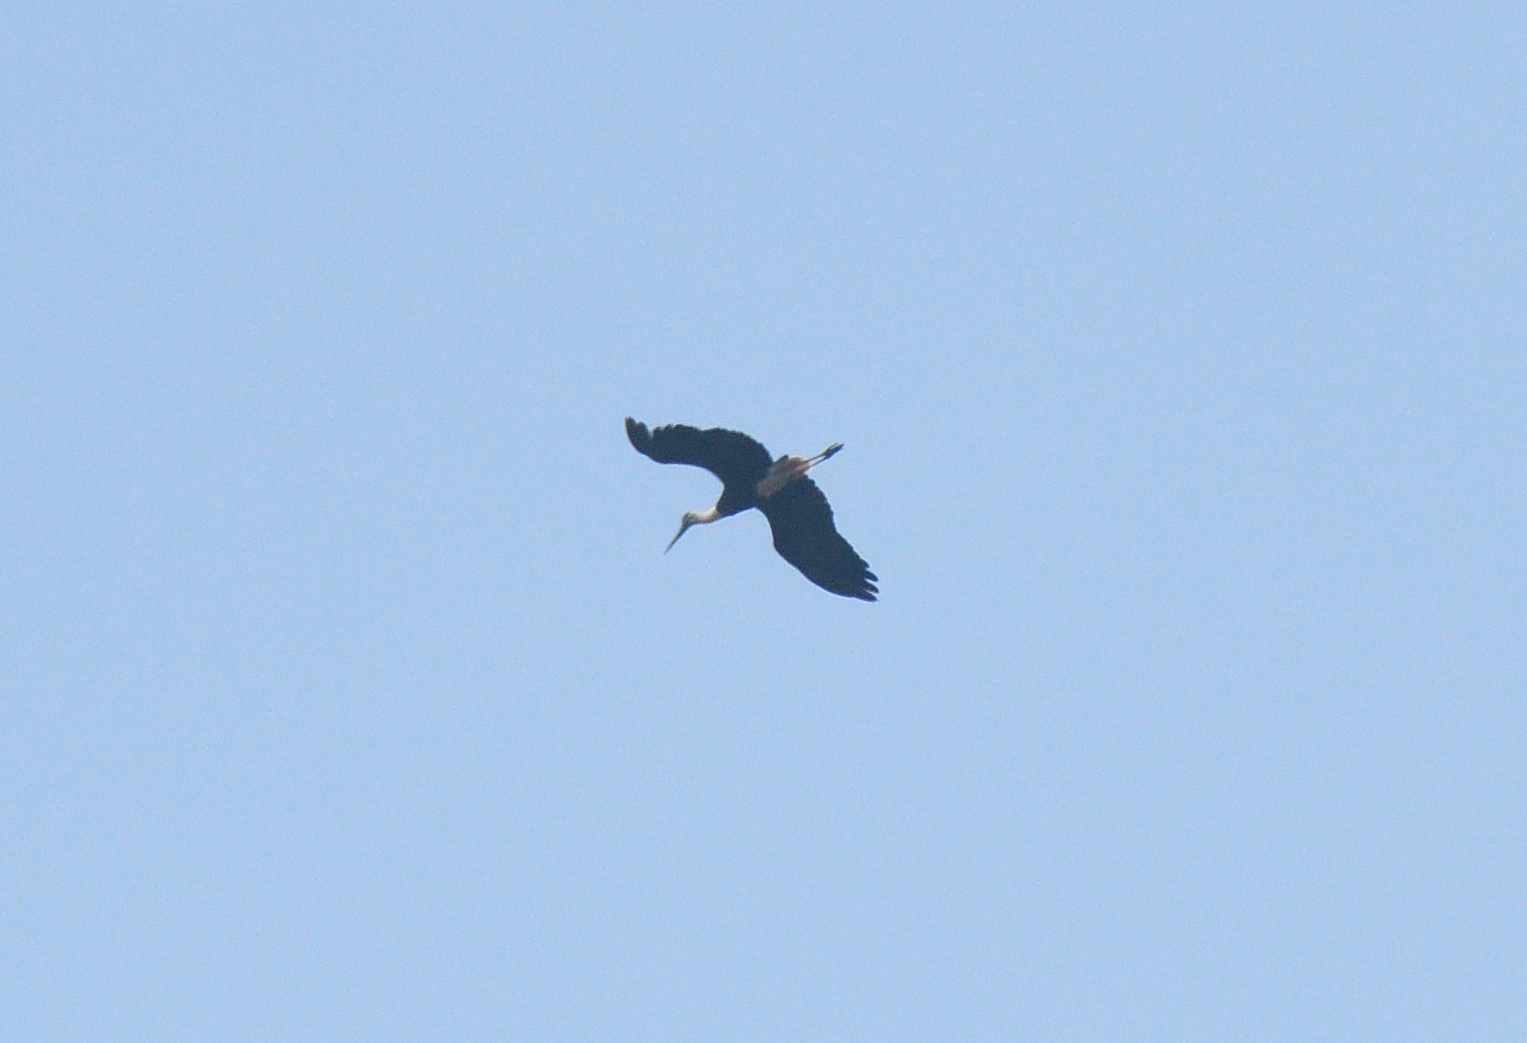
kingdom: Animalia
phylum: Chordata
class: Aves
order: Ciconiiformes
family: Ciconiidae
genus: Ciconia
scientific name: Ciconia episcopus
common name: Woolly-necked stork
